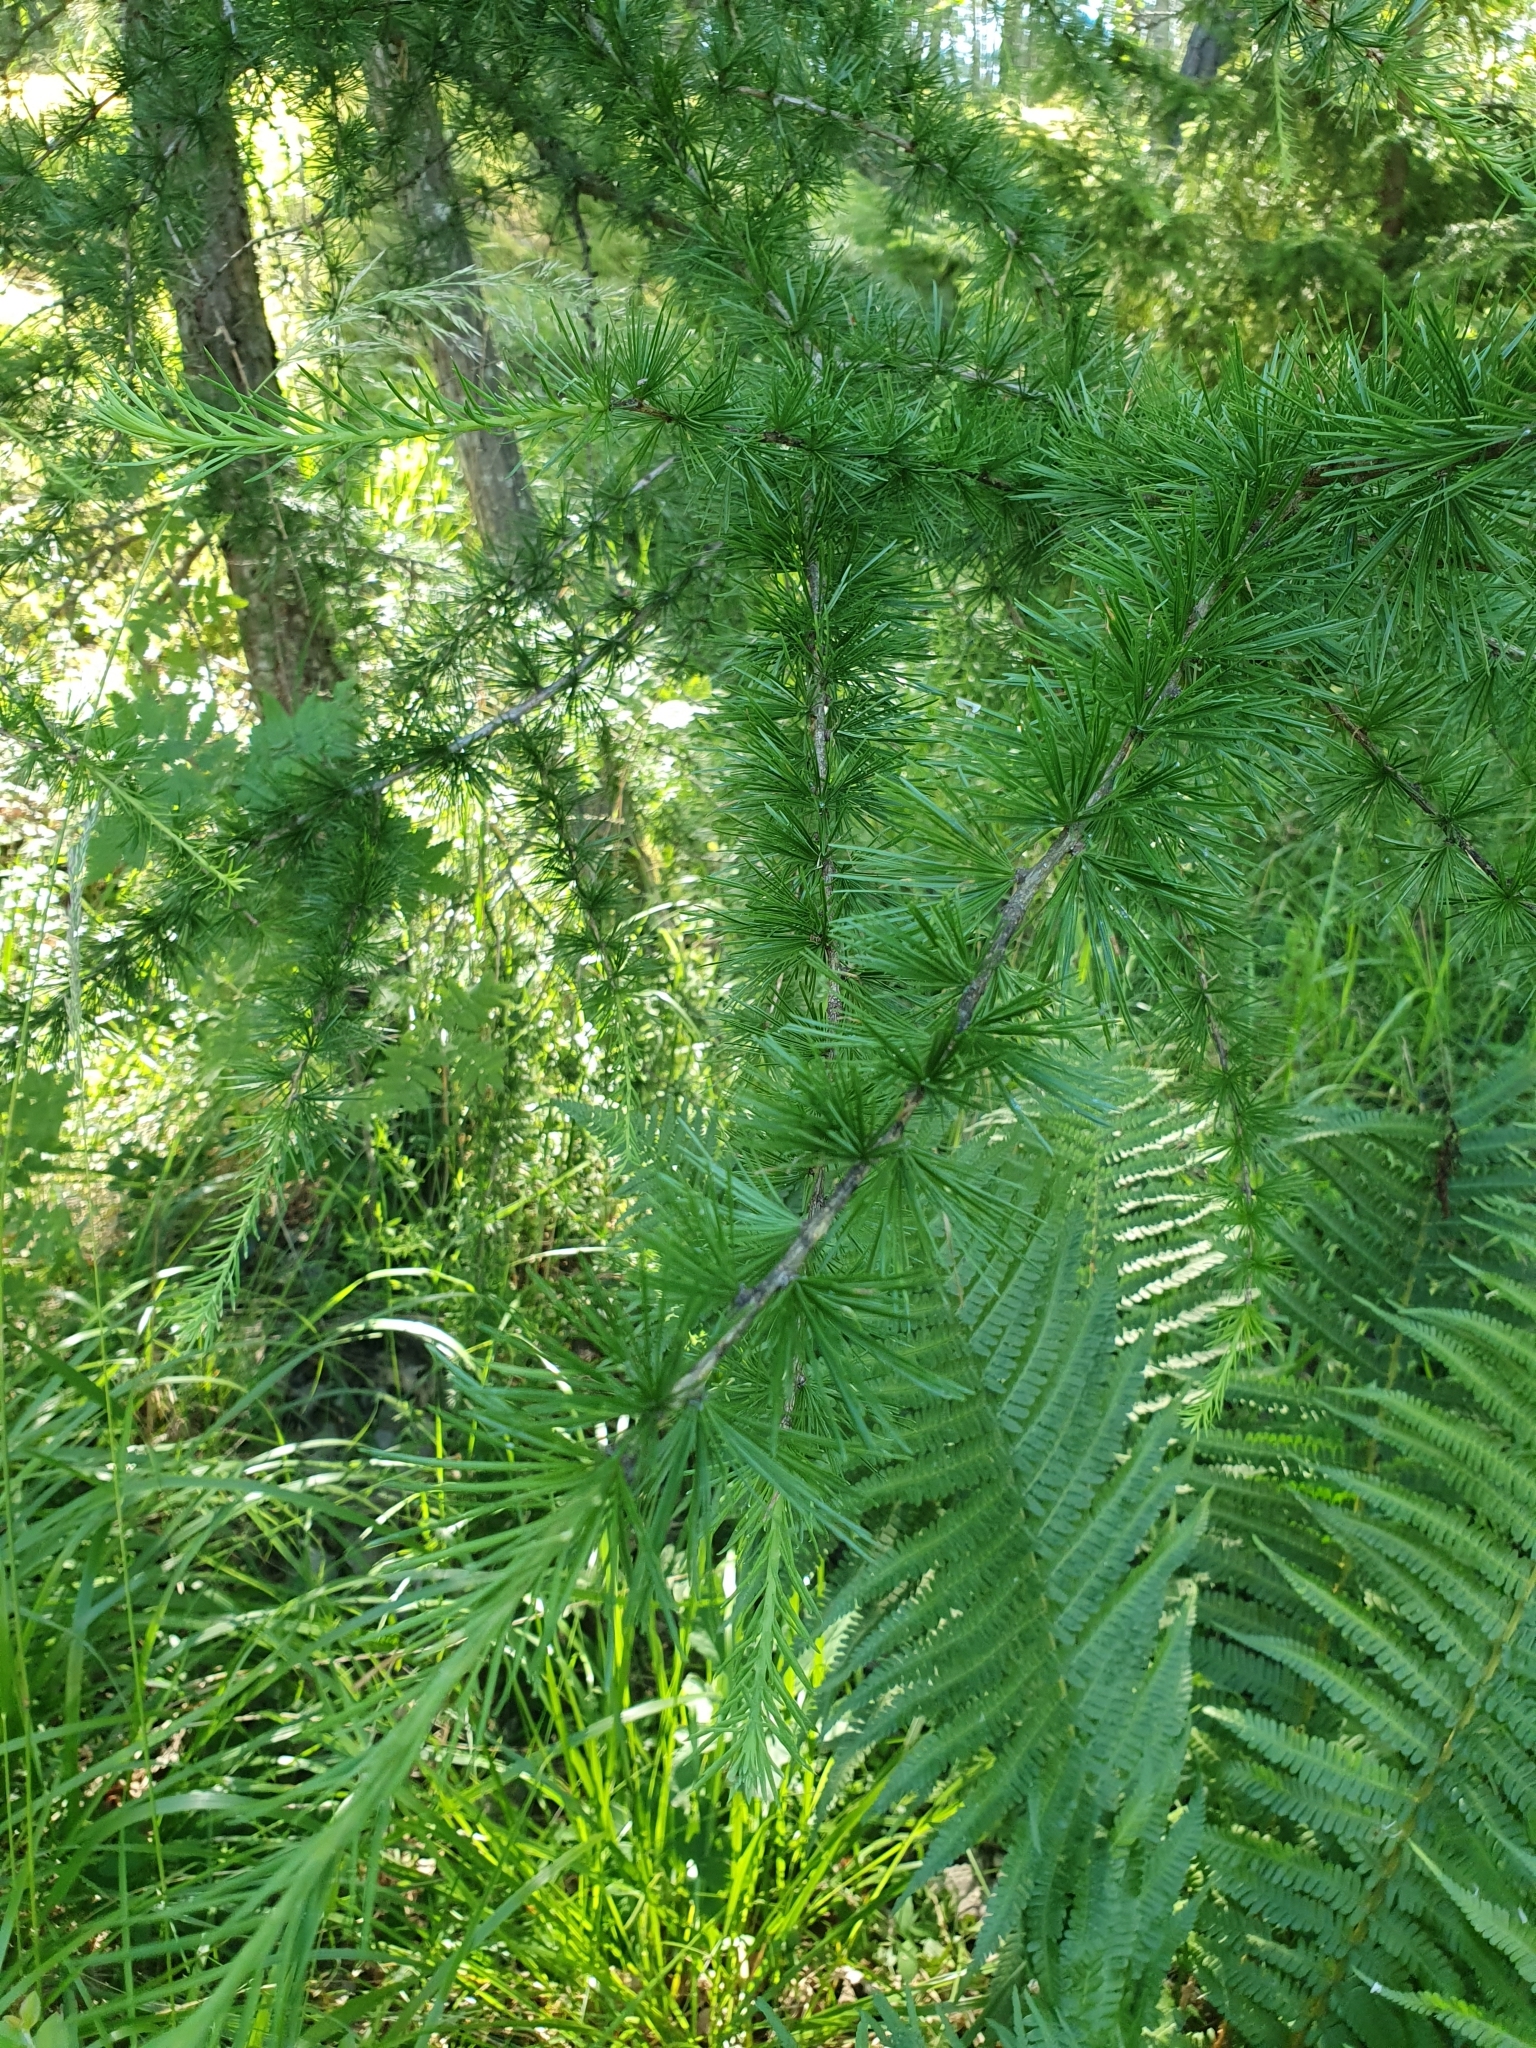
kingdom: Plantae
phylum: Tracheophyta
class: Pinopsida
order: Pinales
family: Pinaceae
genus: Larix
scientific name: Larix decidua
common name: European larch
